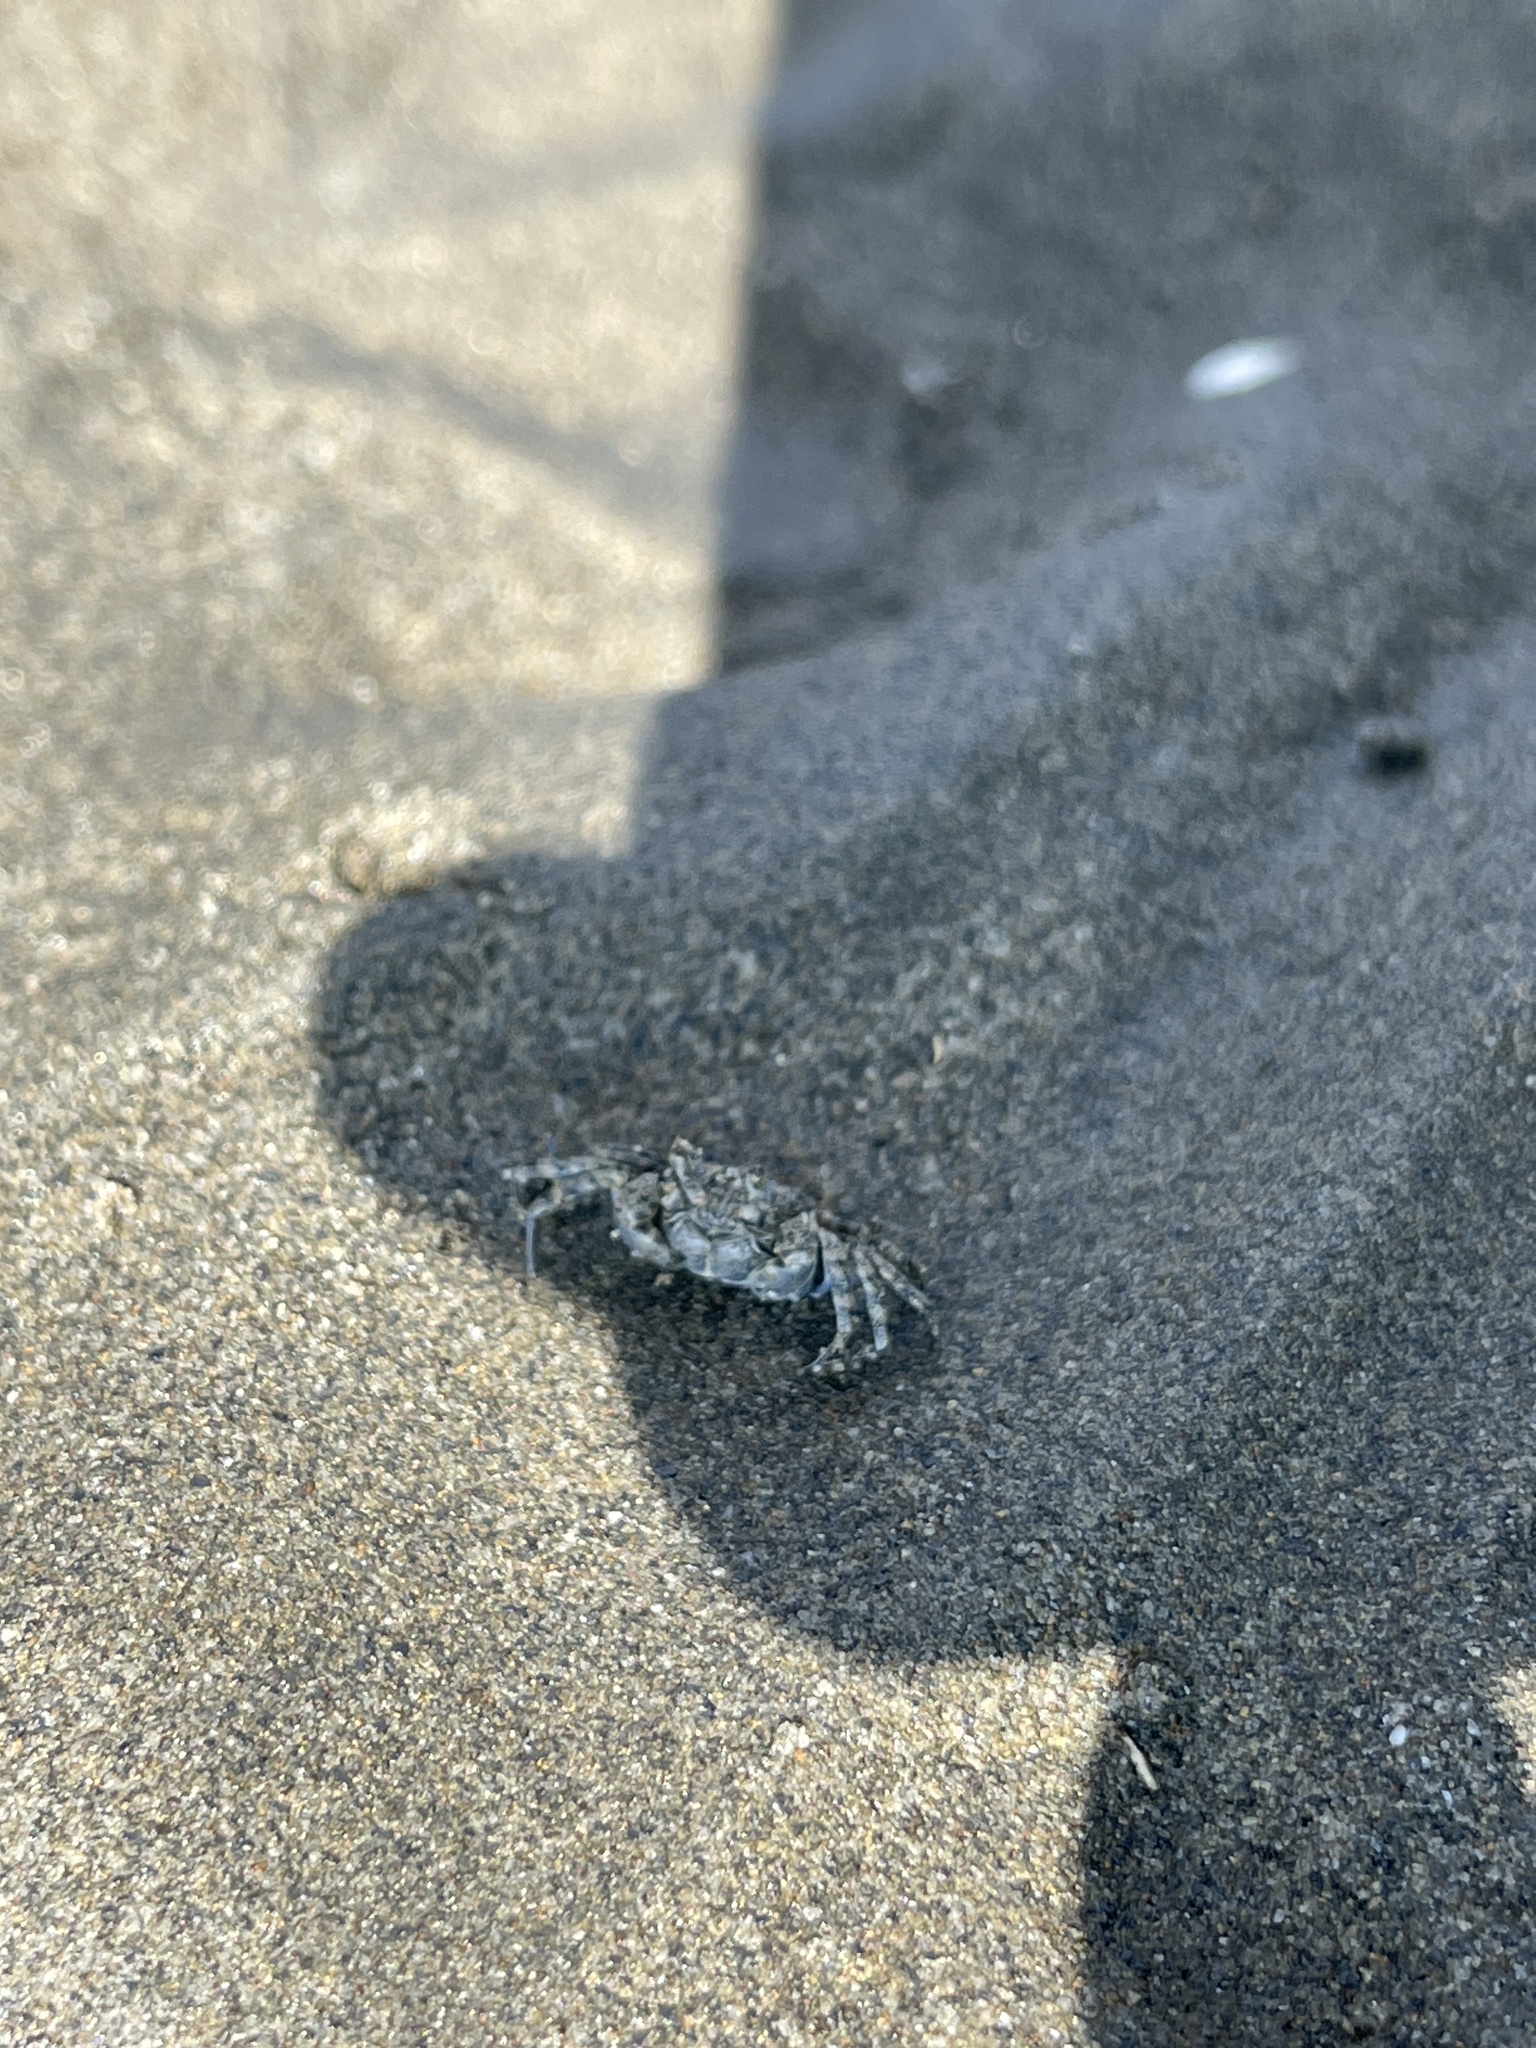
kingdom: Animalia
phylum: Arthropoda
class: Malacostraca
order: Decapoda
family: Dotillidae
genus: Scopimera
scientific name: Scopimera bitympana
